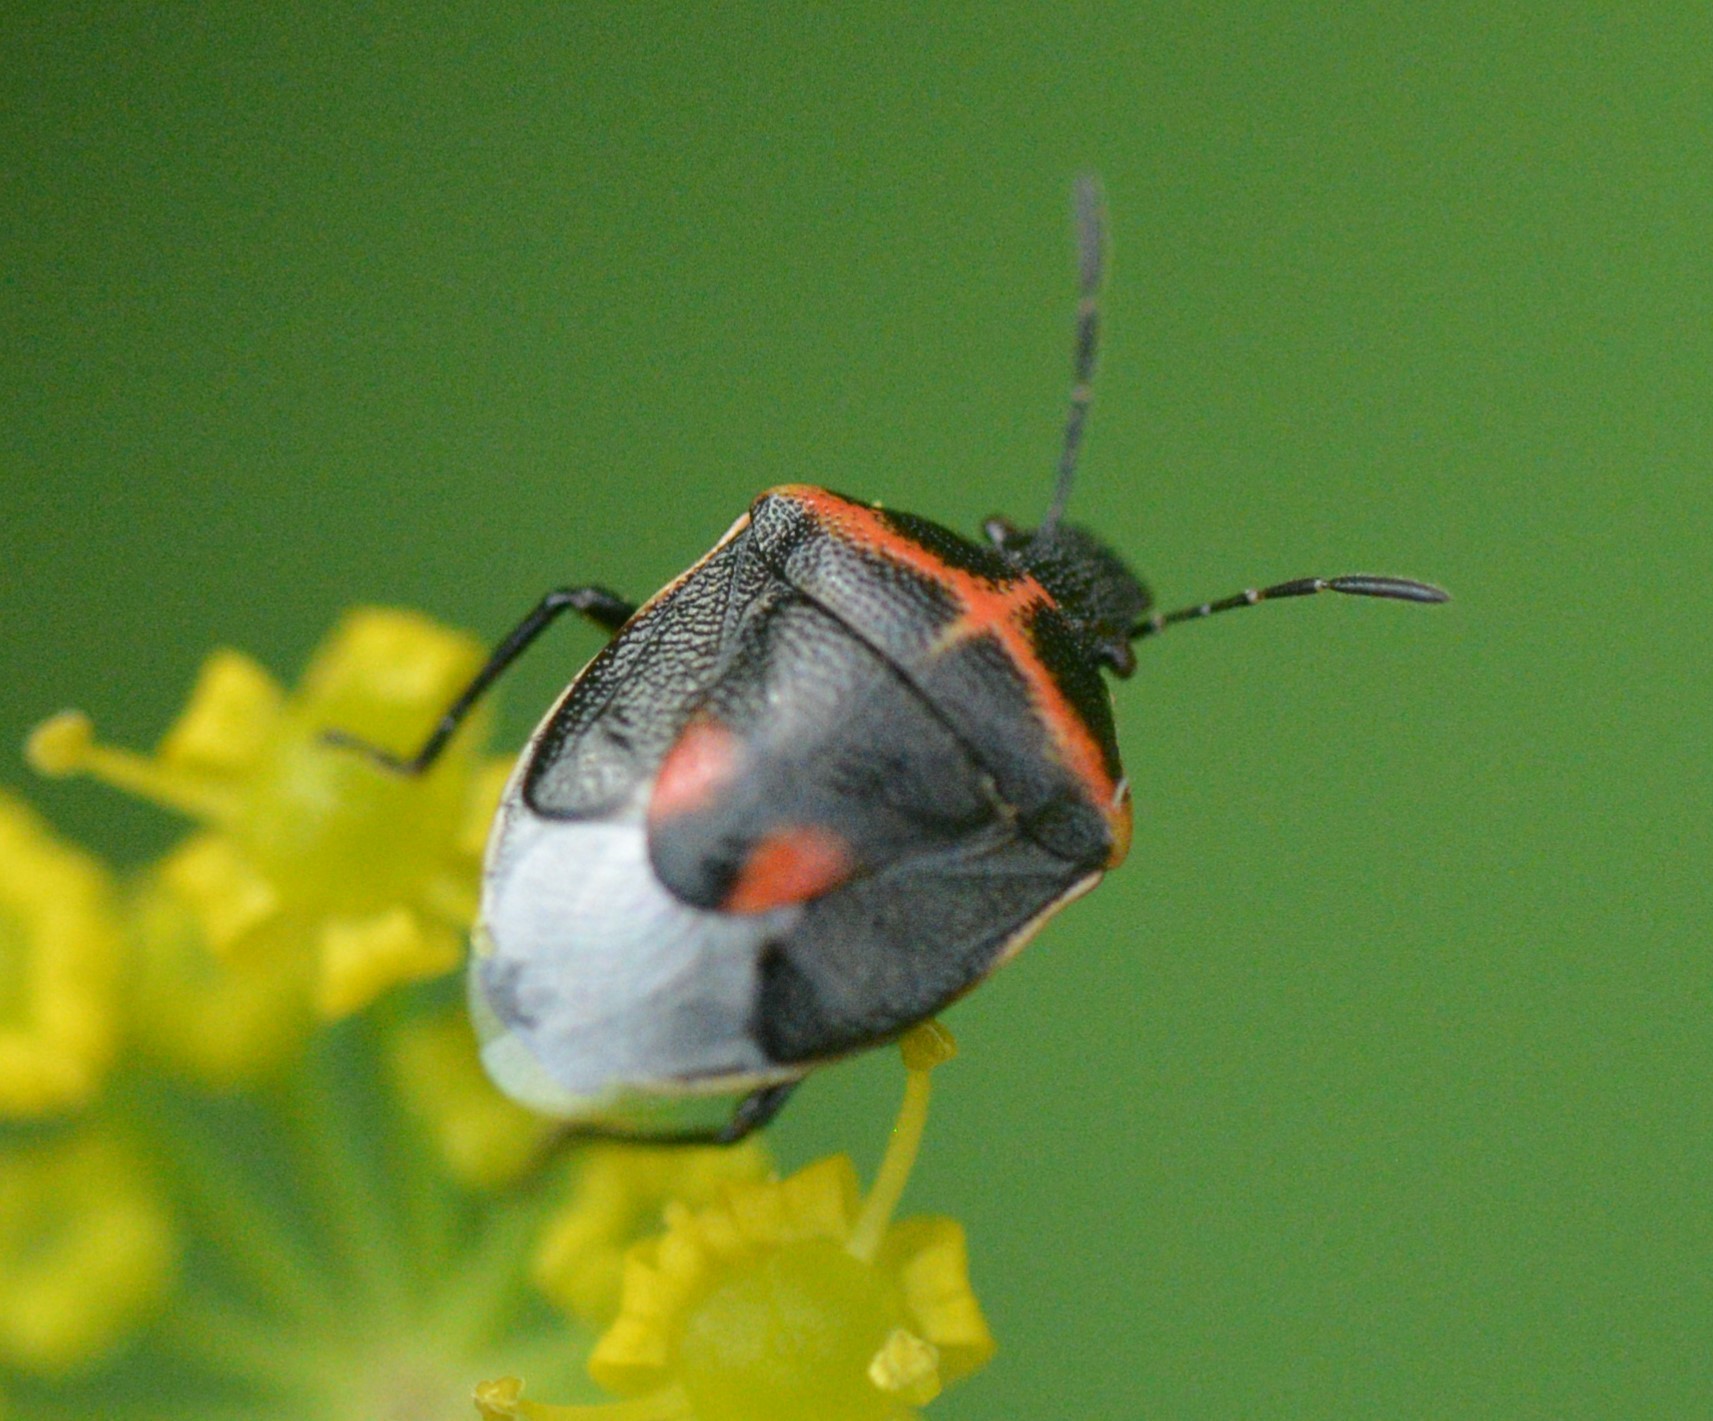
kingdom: Animalia
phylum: Arthropoda
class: Insecta
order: Hemiptera
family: Pentatomidae
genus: Cosmopepla
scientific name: Cosmopepla lintneriana
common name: Twice-stabbed stink bug
